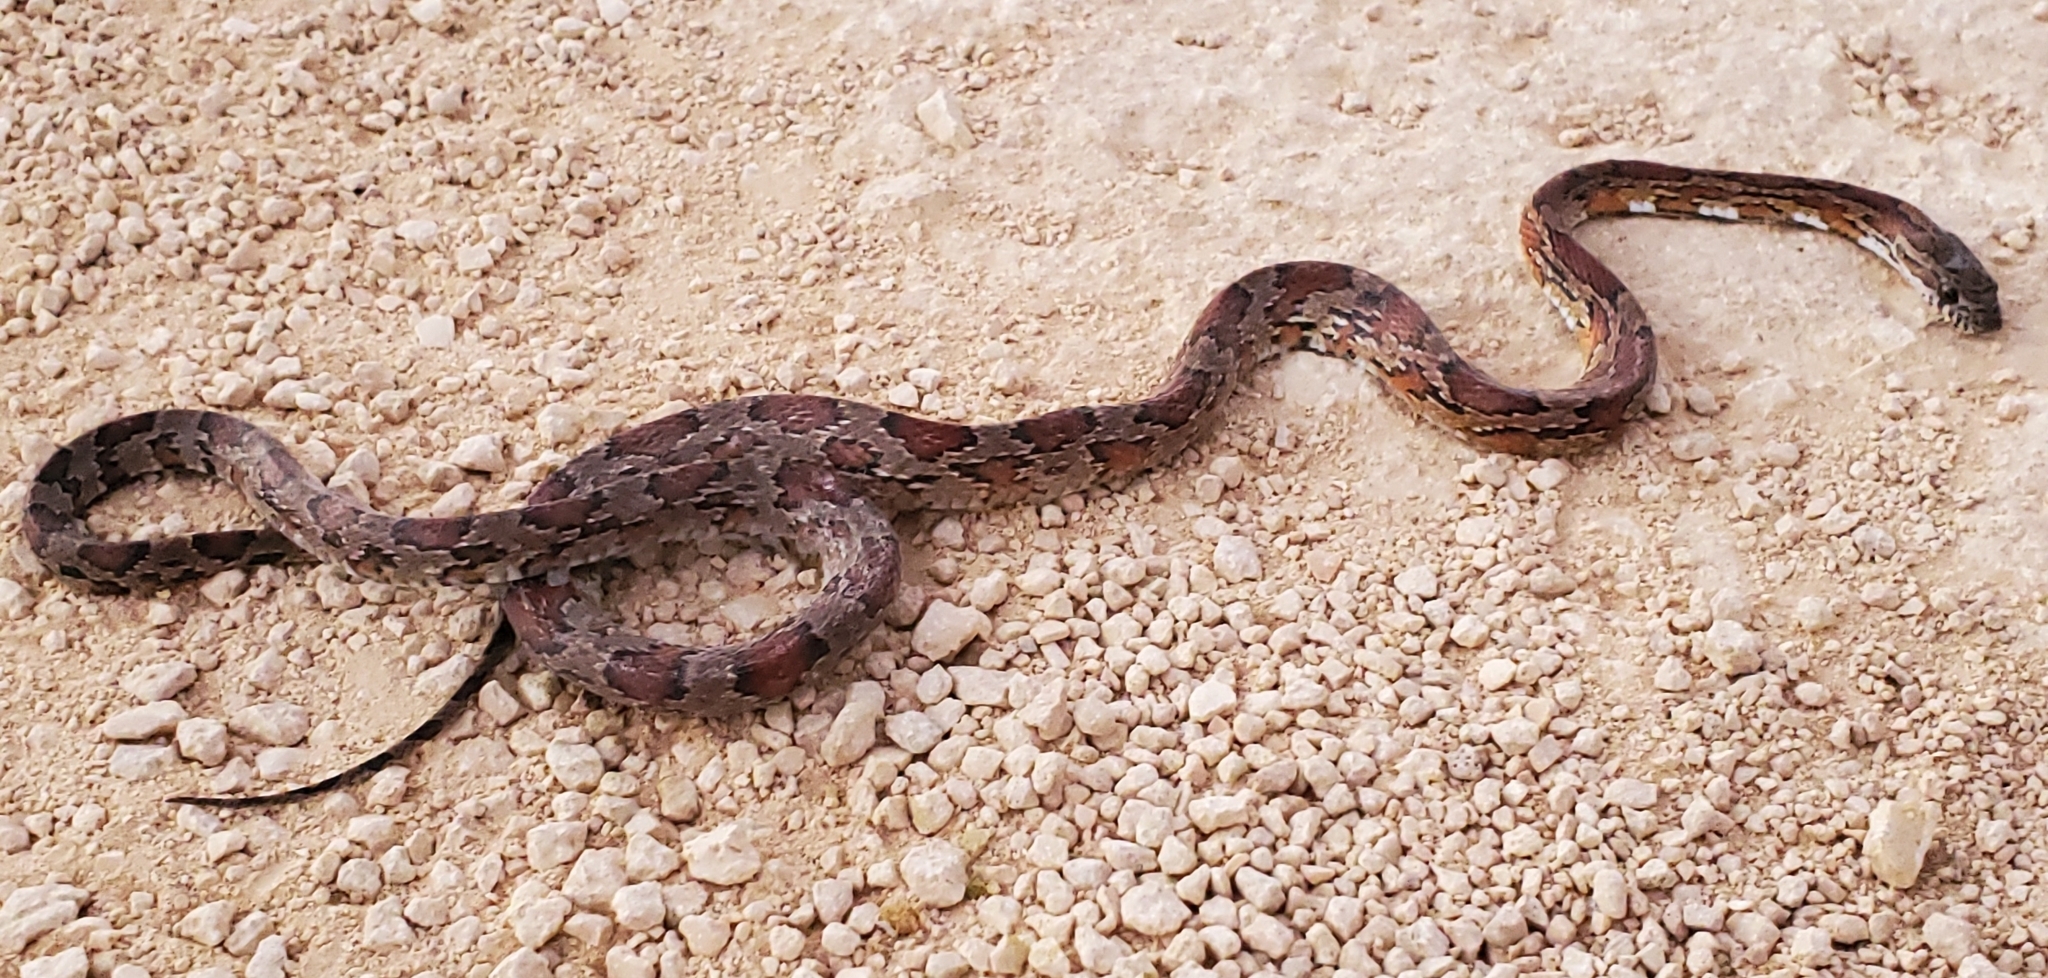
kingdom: Animalia
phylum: Chordata
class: Squamata
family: Colubridae
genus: Pantherophis
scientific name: Pantherophis guttatus
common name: Red cornsnake
